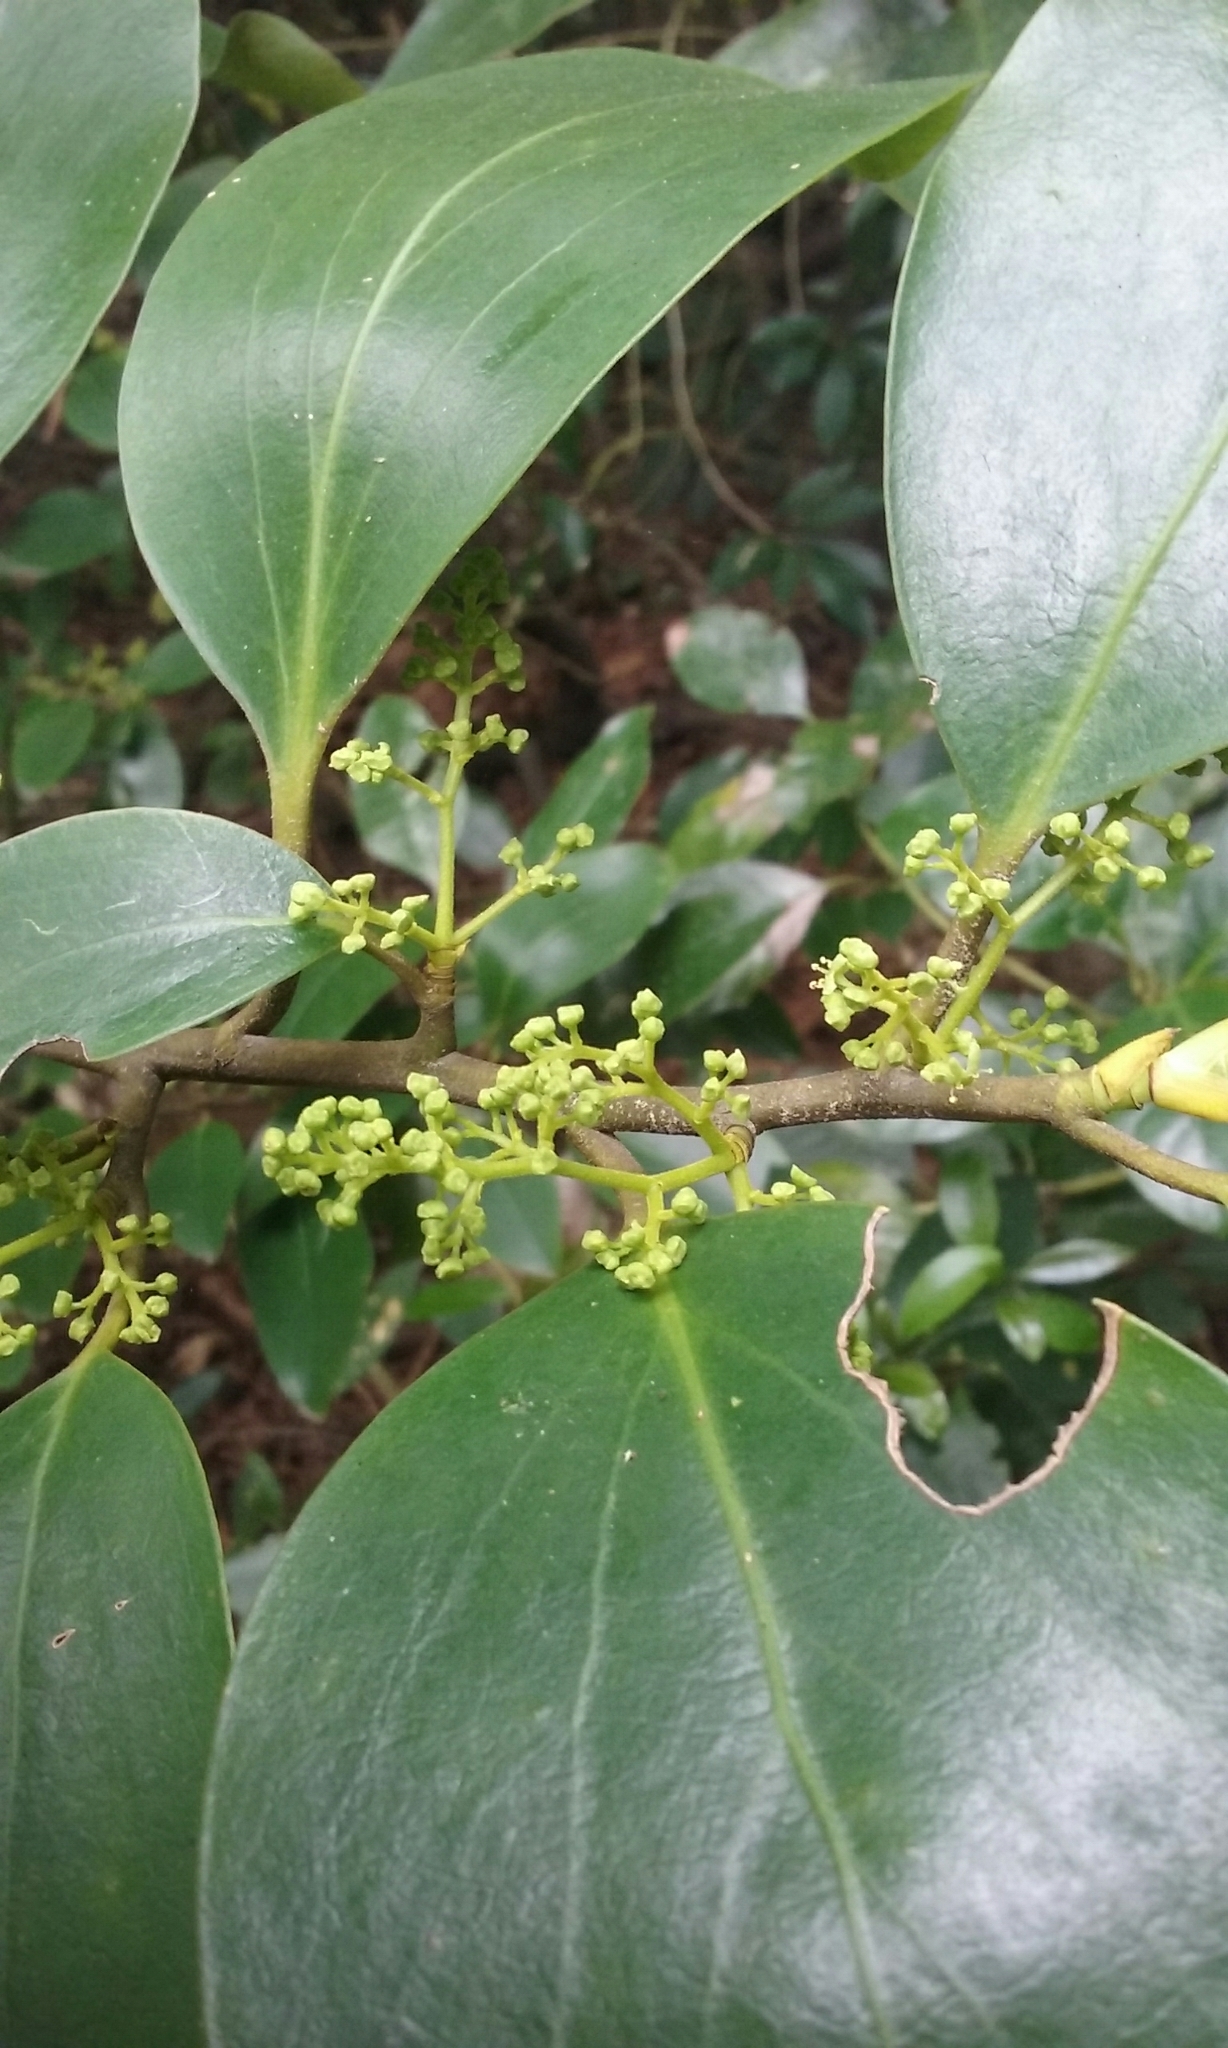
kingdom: Plantae
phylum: Tracheophyta
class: Magnoliopsida
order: Apiales
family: Griseliniaceae
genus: Griselinia
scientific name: Griselinia littoralis
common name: New zealand broadleaf
